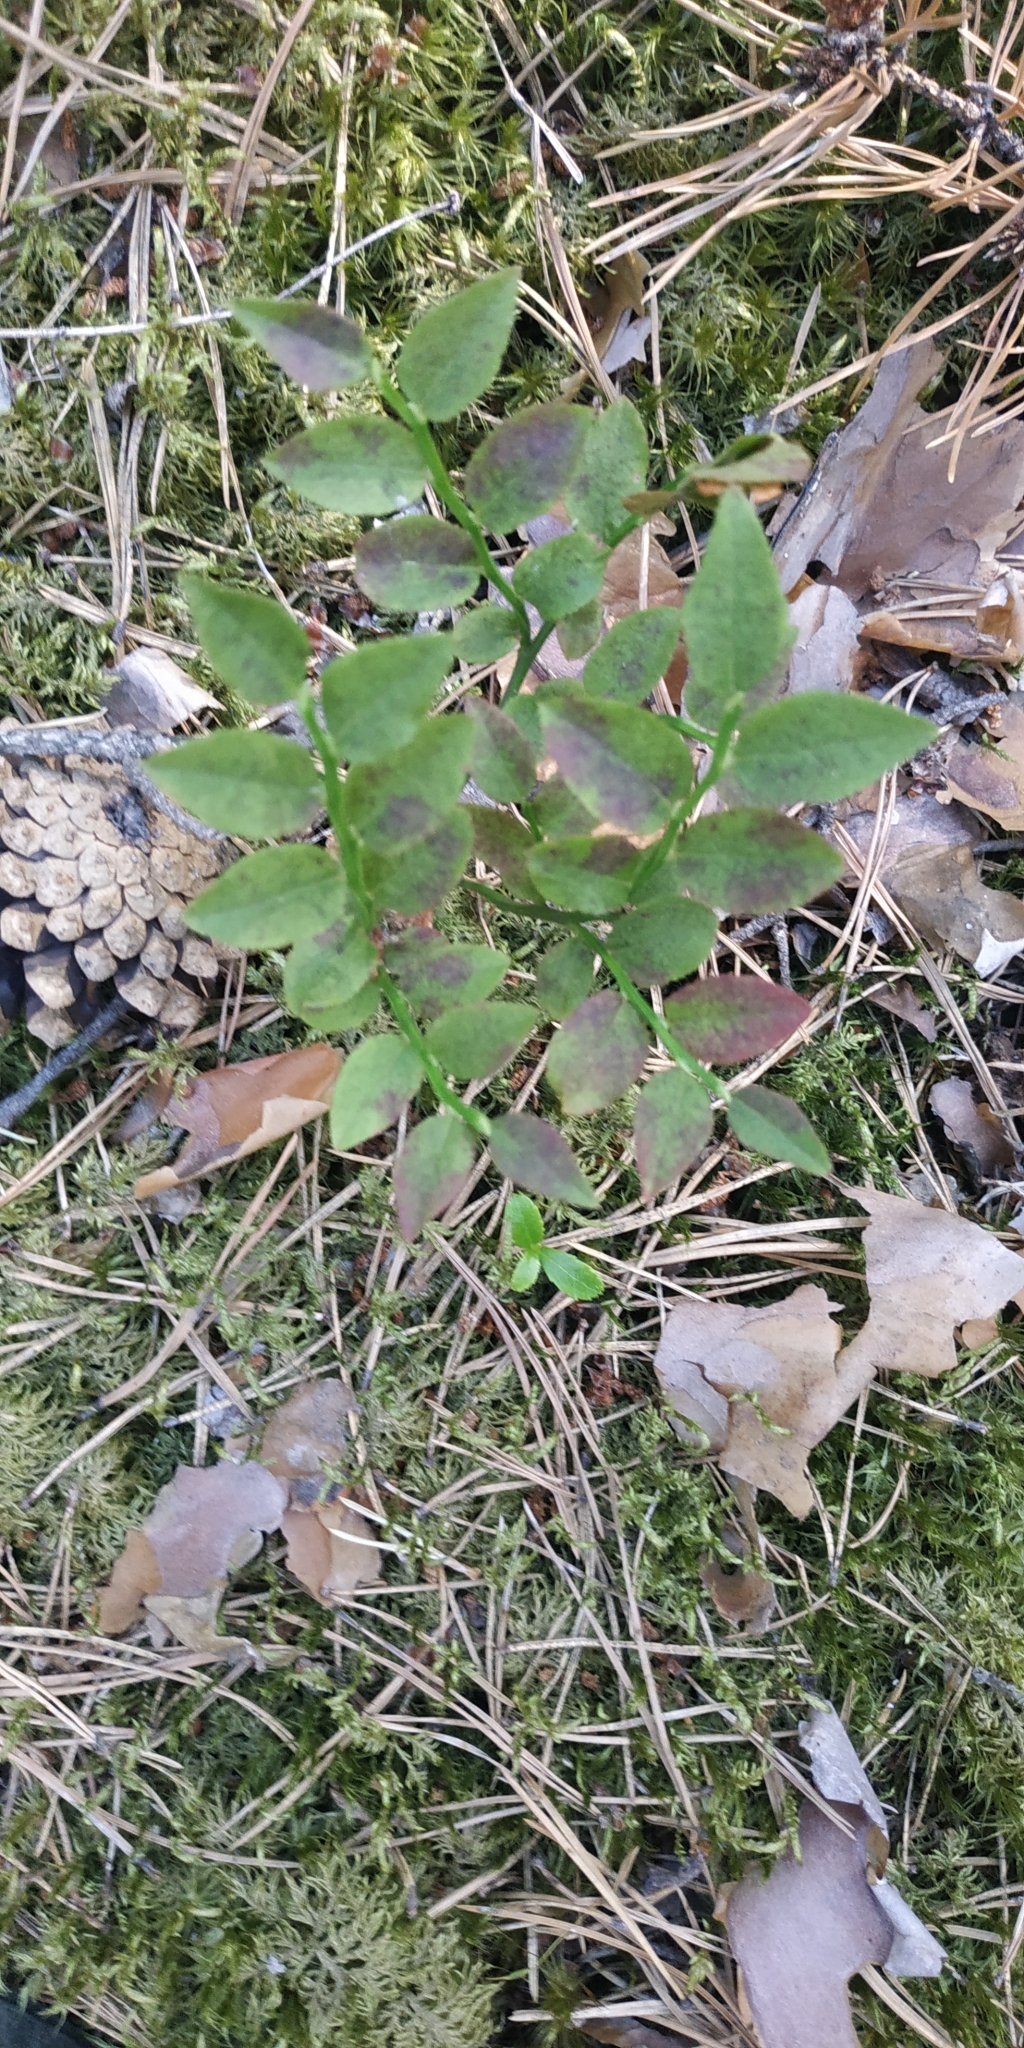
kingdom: Plantae
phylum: Tracheophyta
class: Magnoliopsida
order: Ericales
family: Ericaceae
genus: Vaccinium
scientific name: Vaccinium myrtillus
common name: Bilberry
